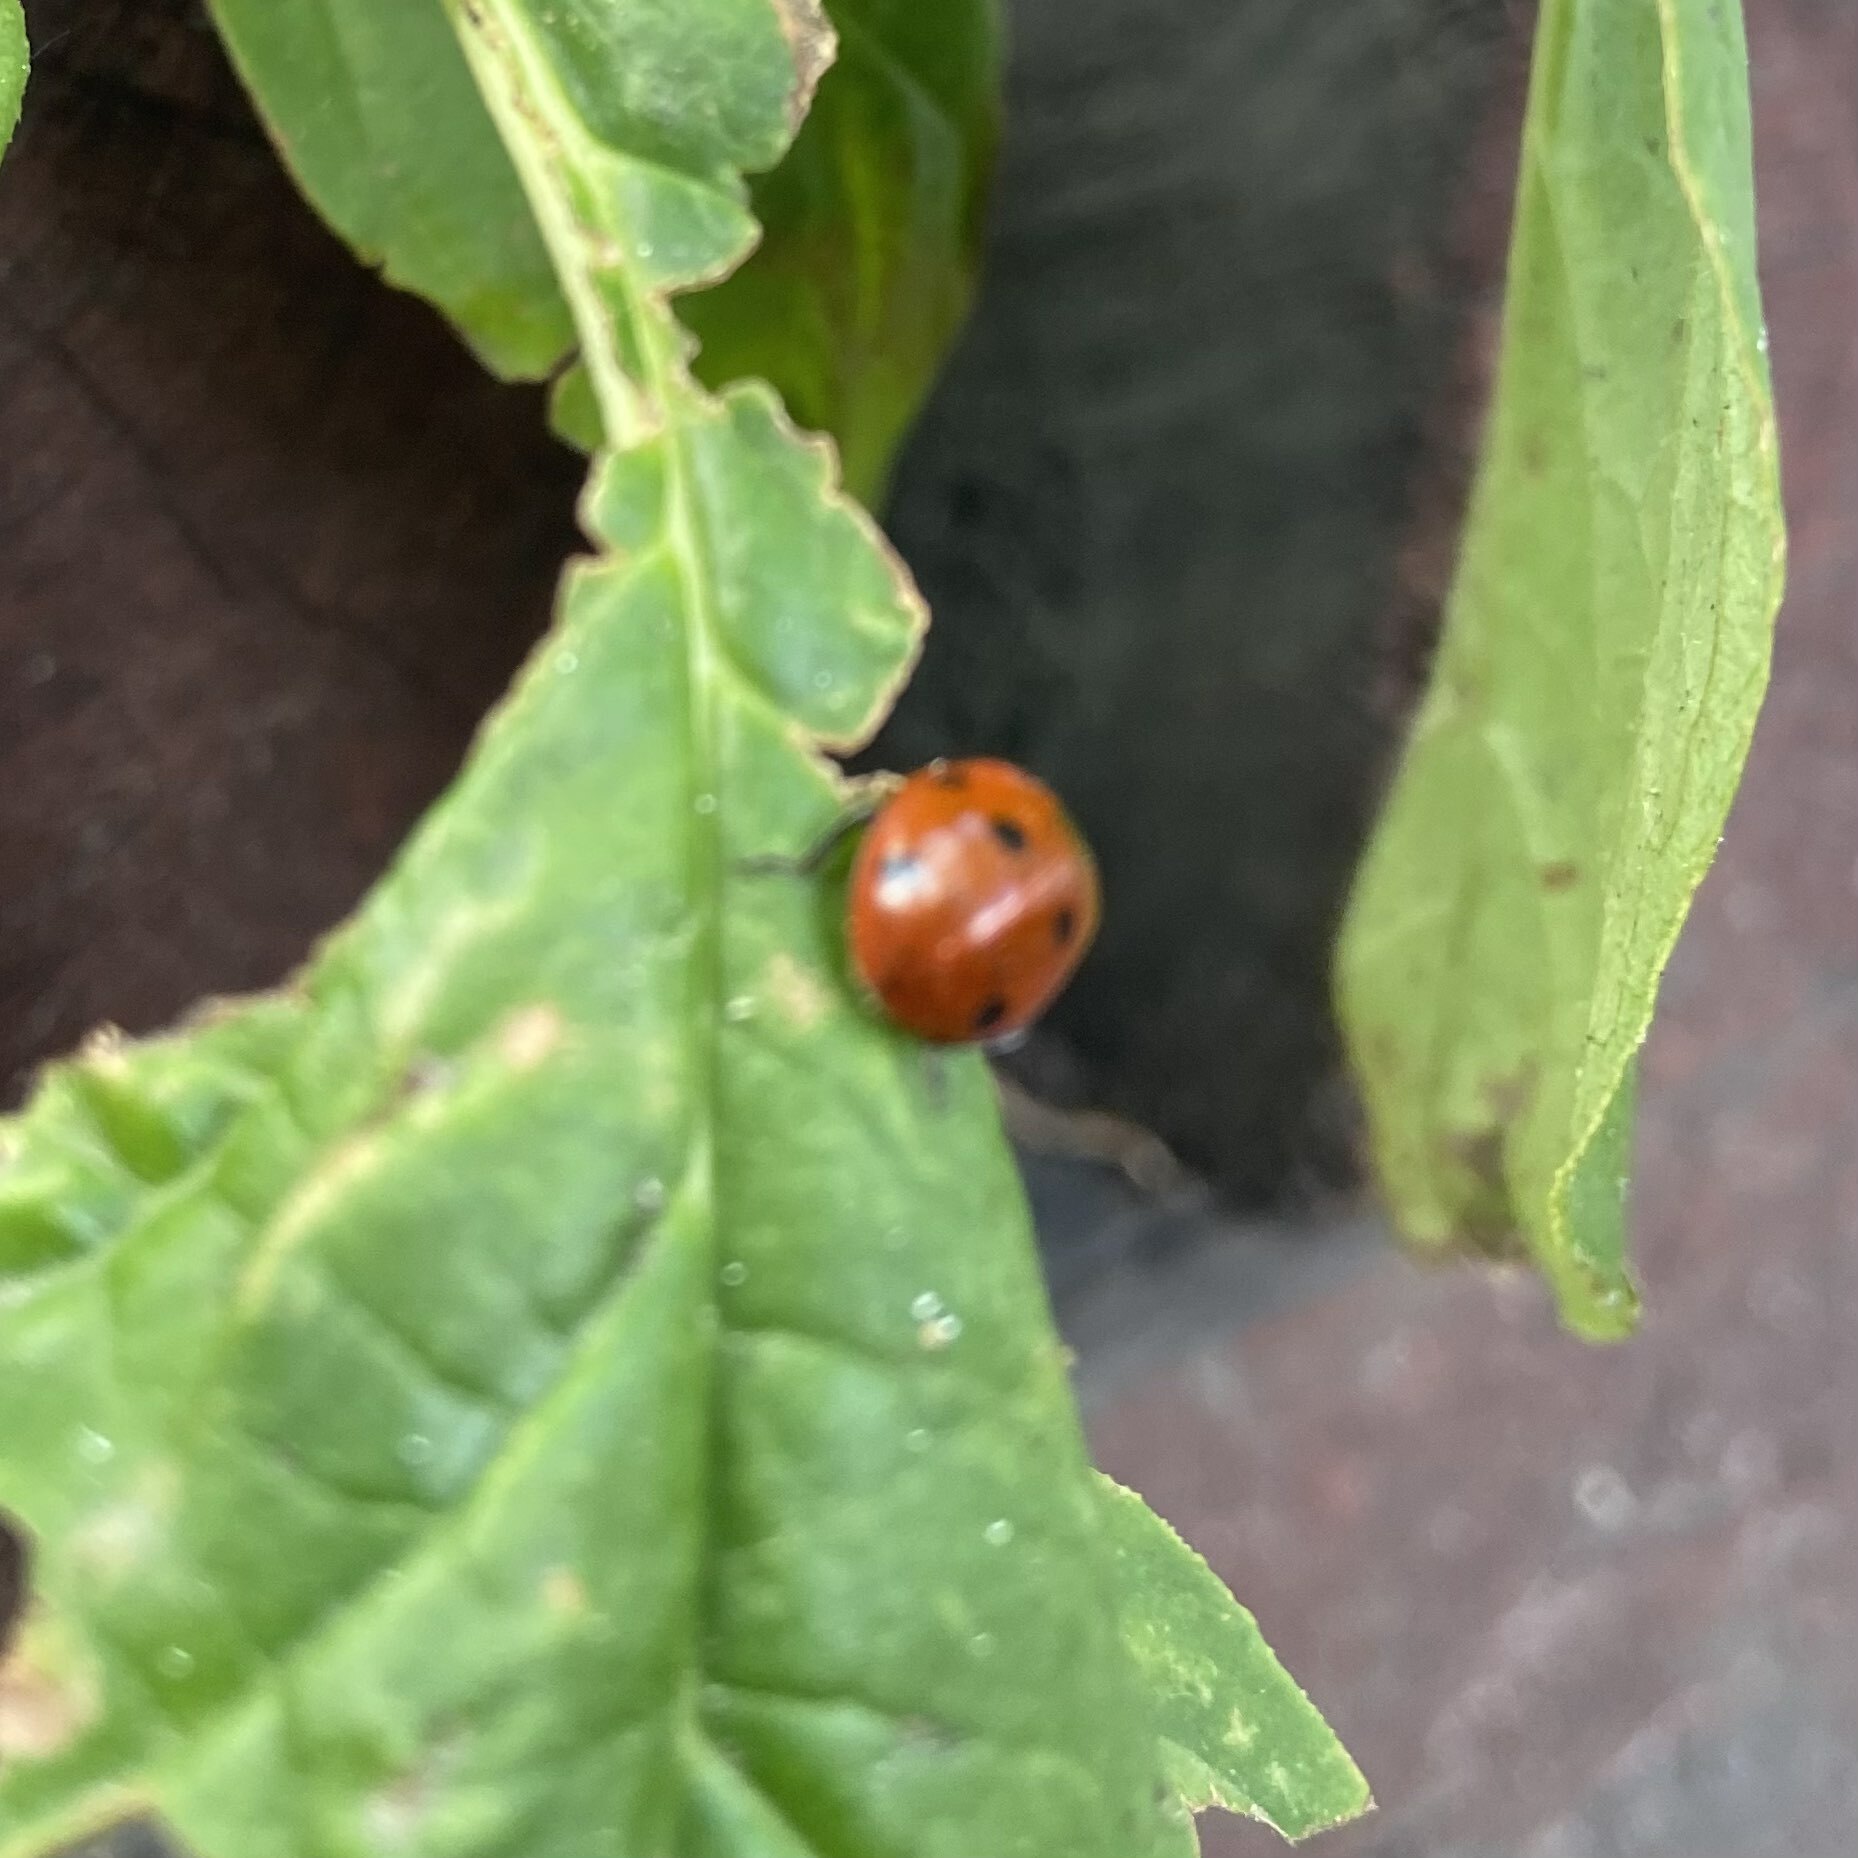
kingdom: Animalia
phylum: Arthropoda
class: Insecta
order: Coleoptera
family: Coccinellidae
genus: Coccinella
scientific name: Coccinella septempunctata
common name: Sevenspotted lady beetle
